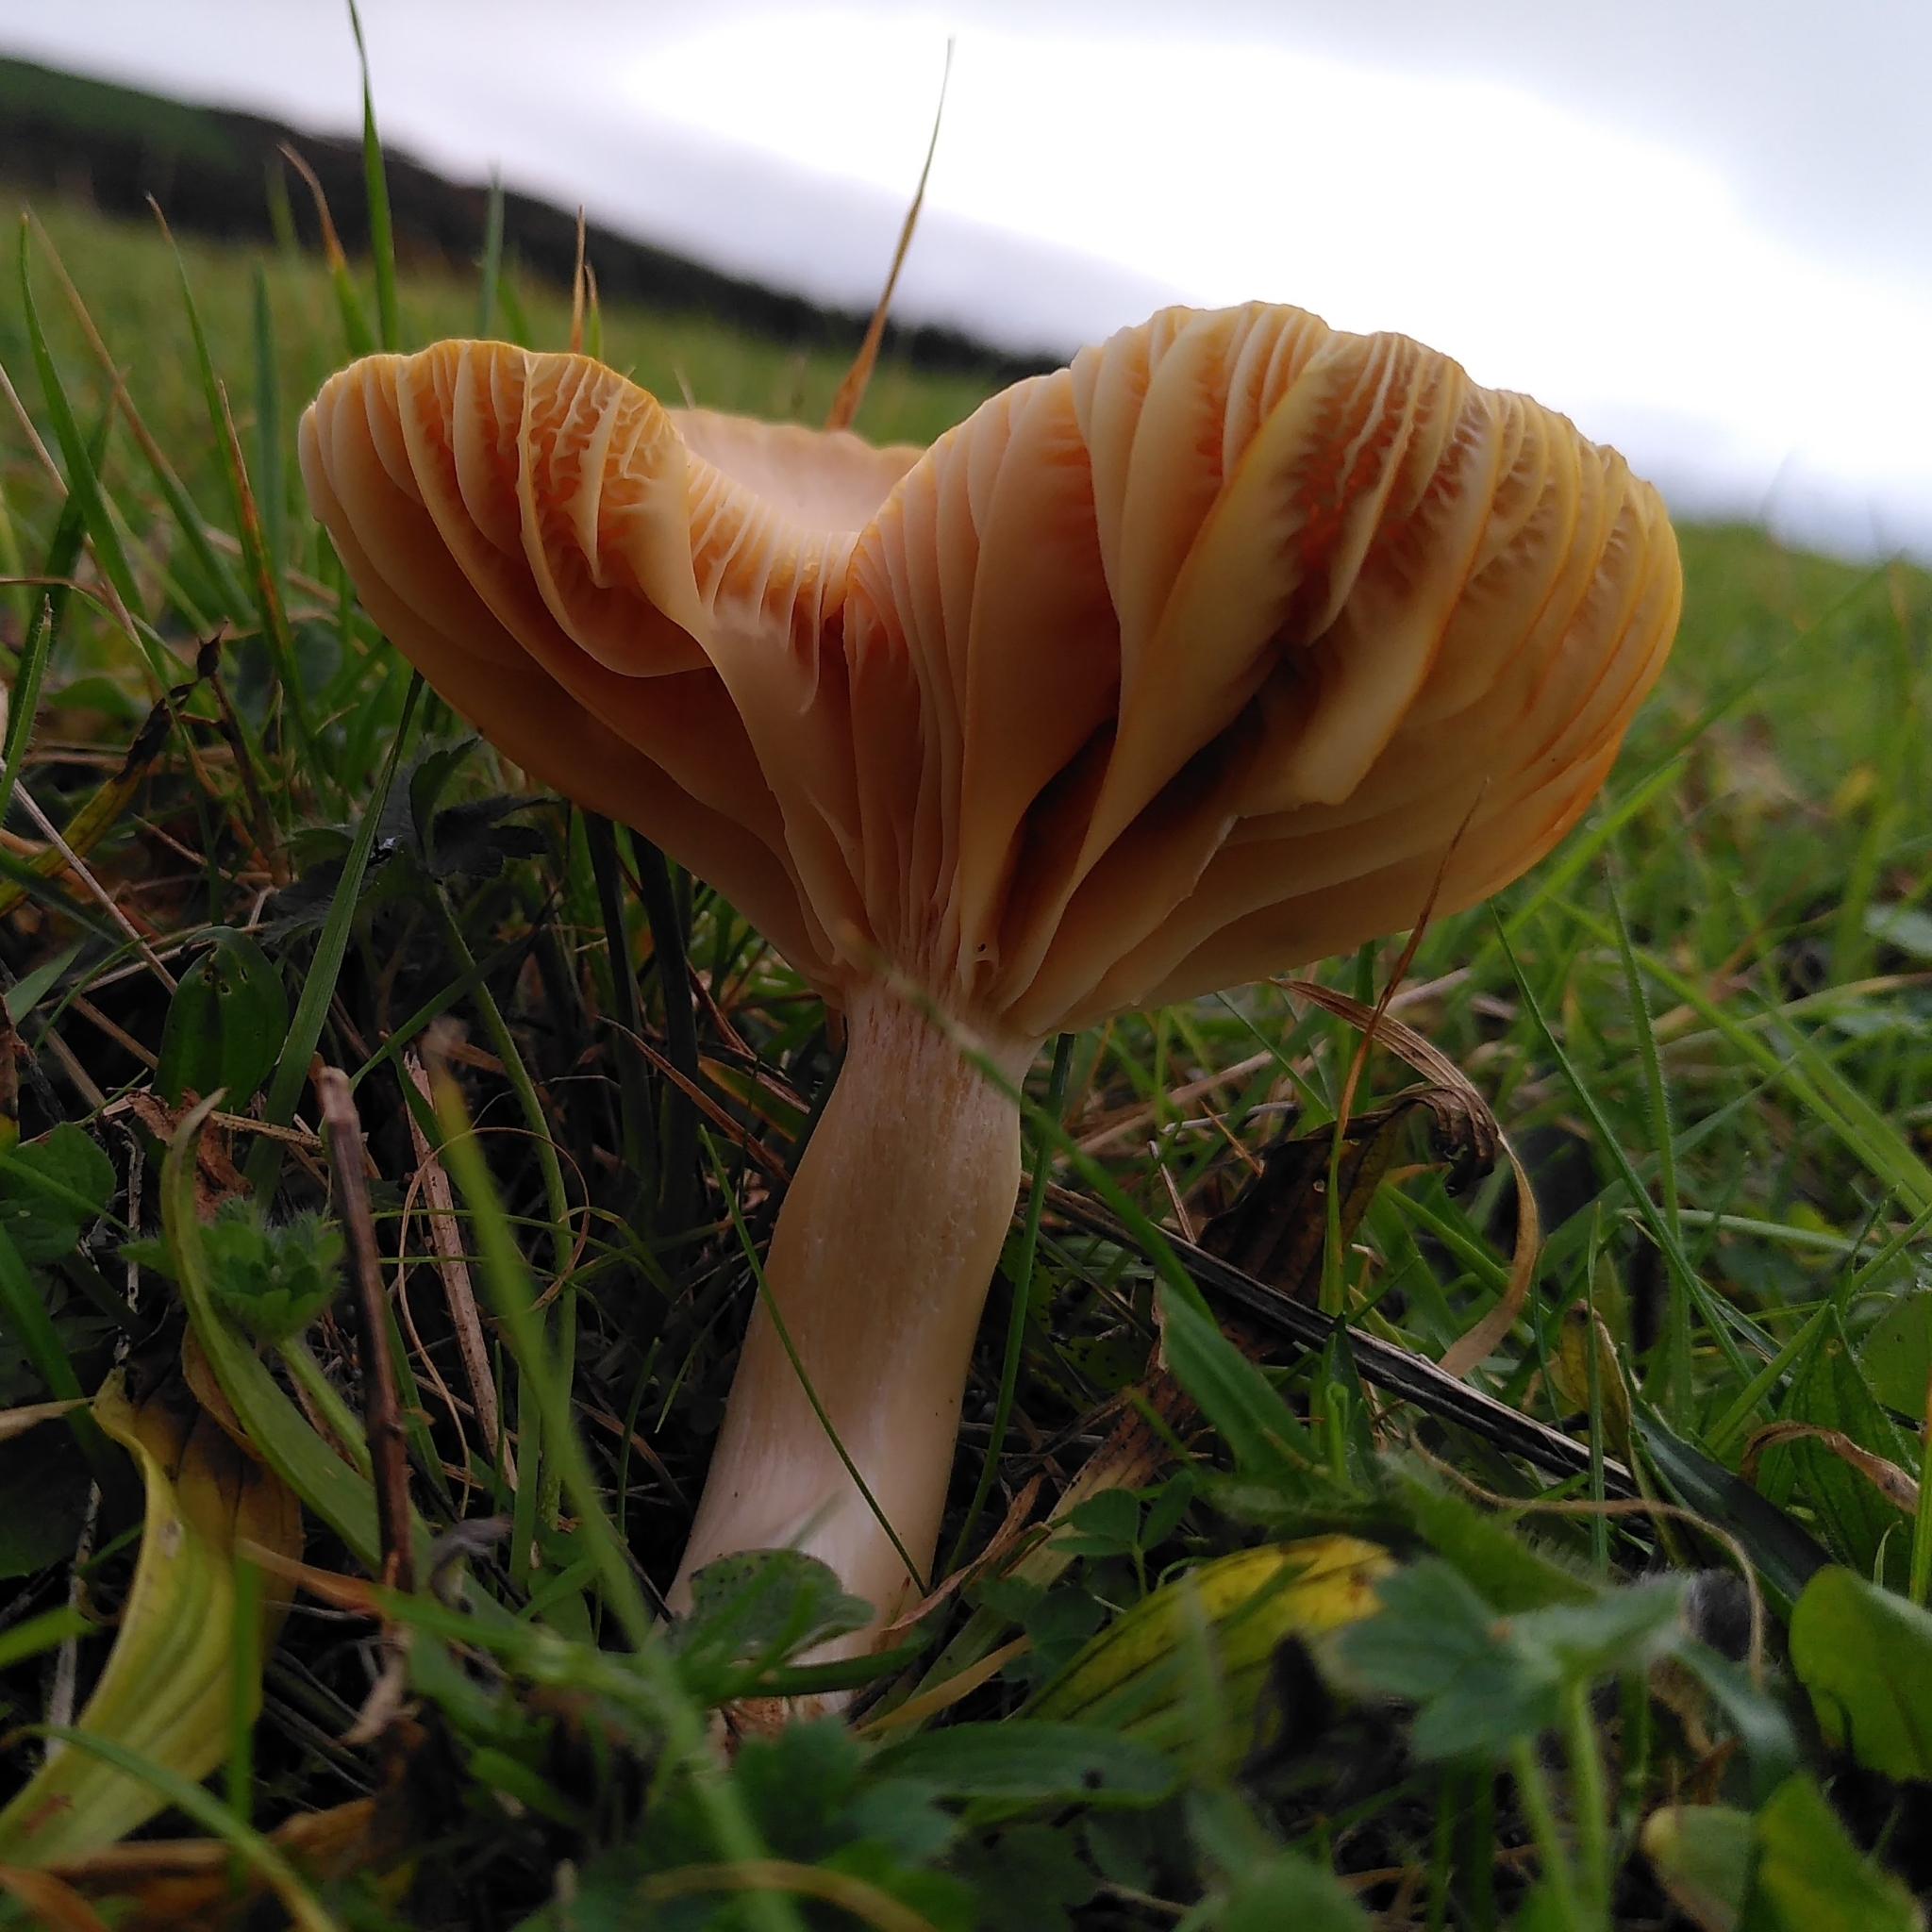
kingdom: Fungi
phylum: Basidiomycota
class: Agaricomycetes
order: Agaricales
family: Hygrophoraceae
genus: Cuphophyllus
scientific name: Cuphophyllus pratensis
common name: Meadow waxcap
